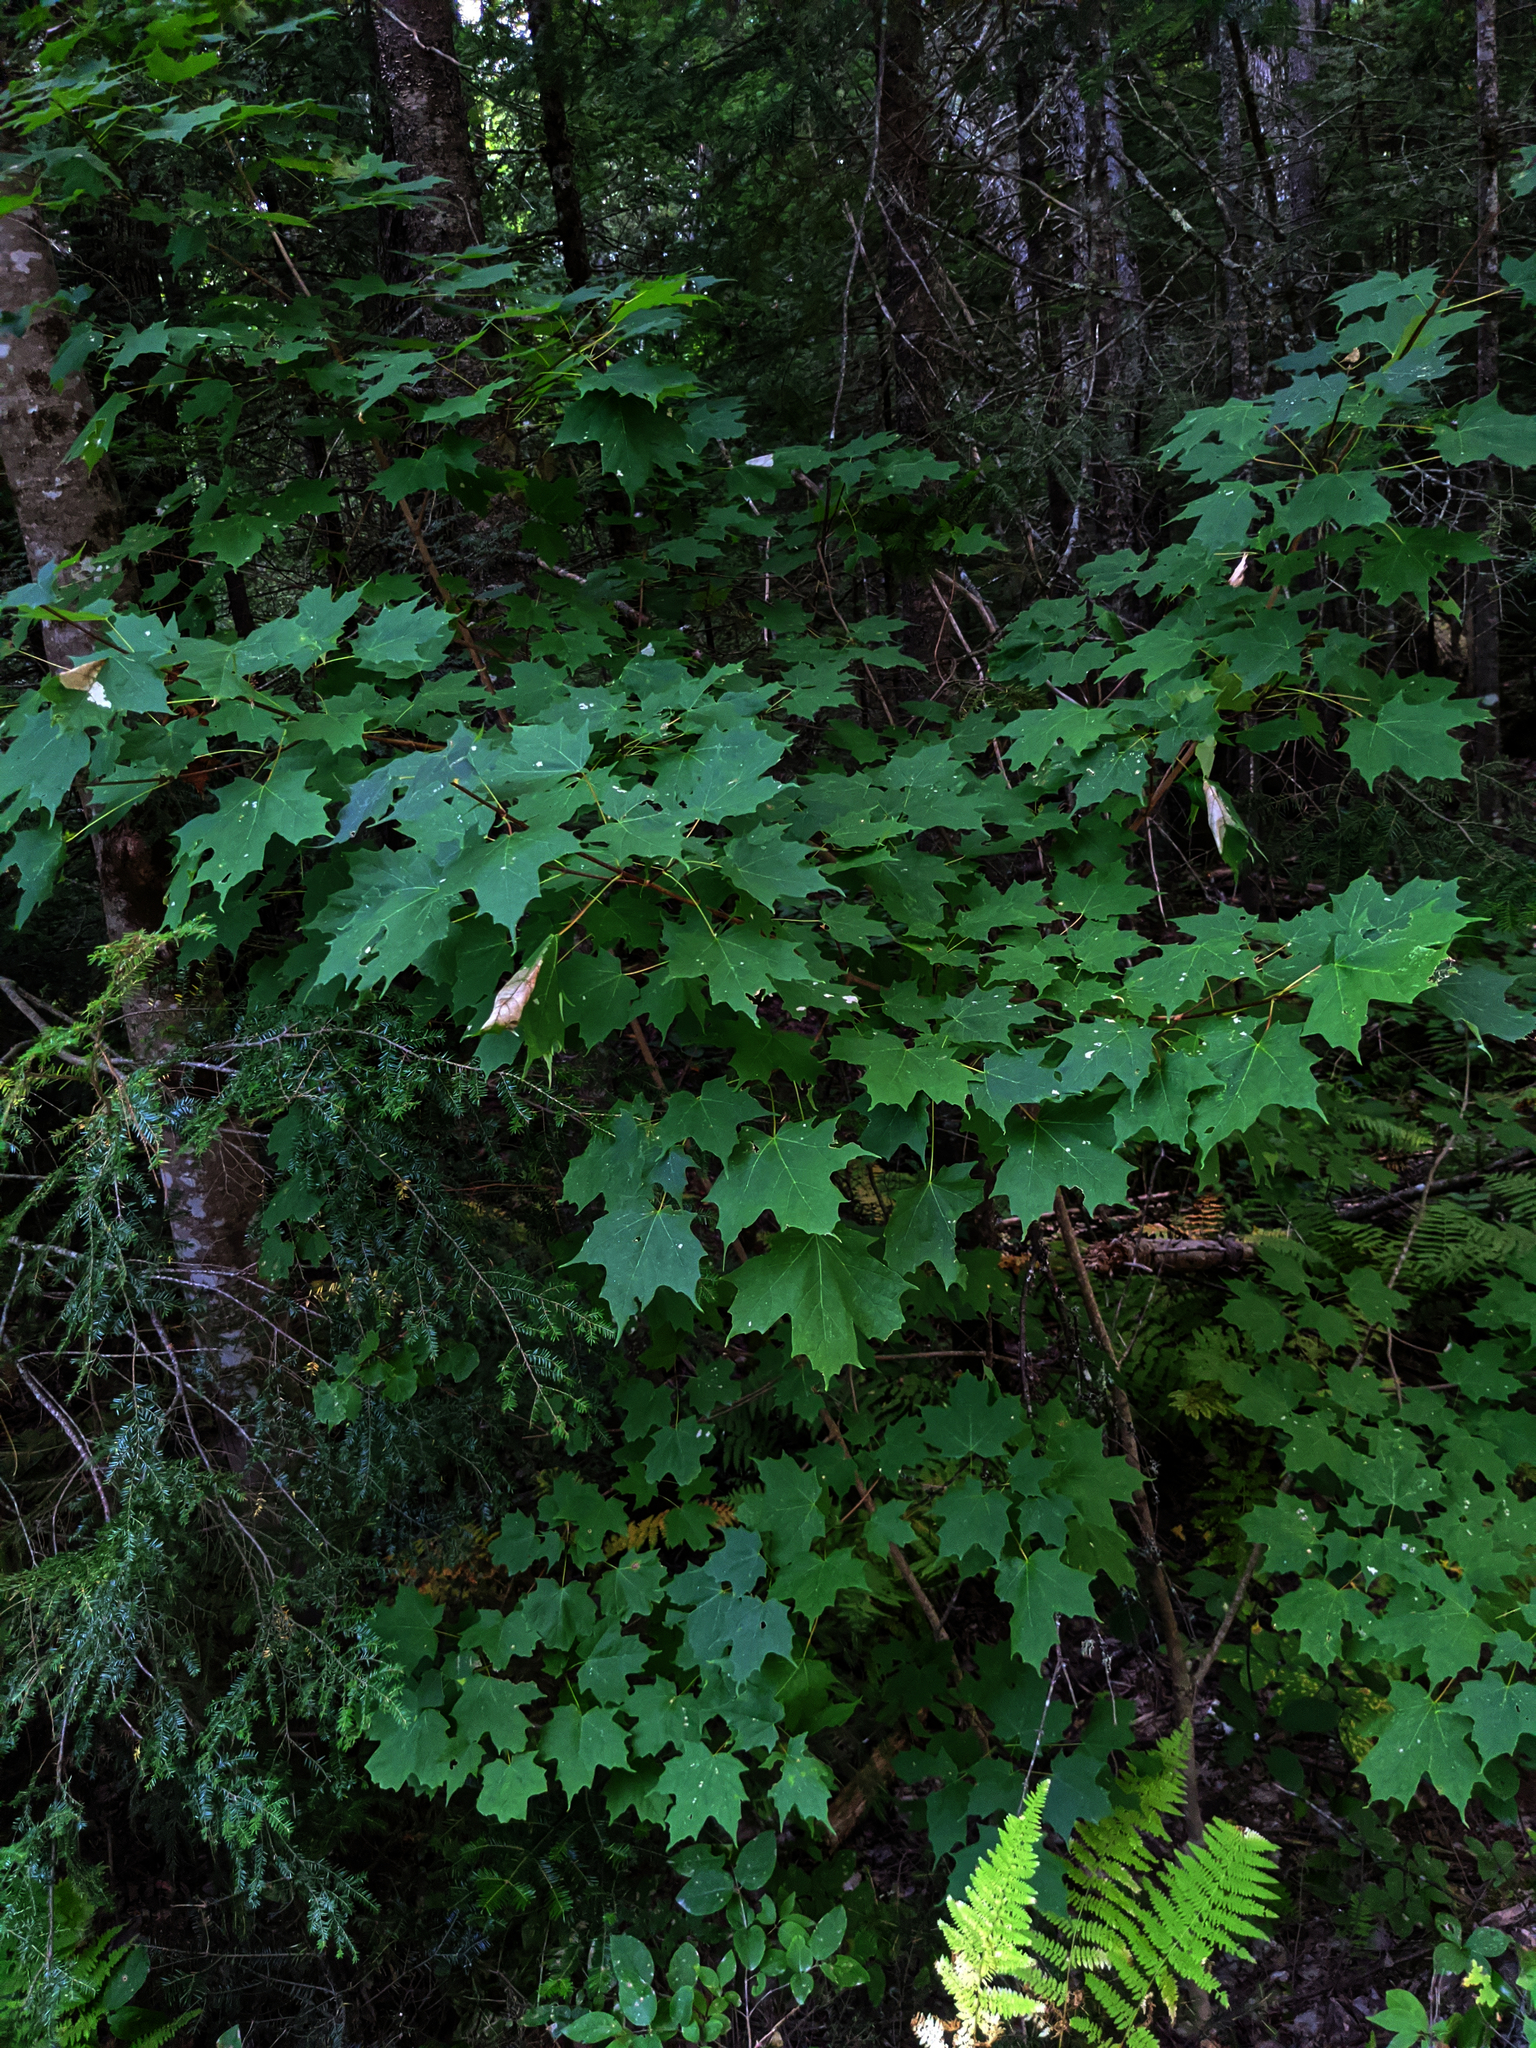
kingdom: Plantae
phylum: Tracheophyta
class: Magnoliopsida
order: Sapindales
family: Sapindaceae
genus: Acer
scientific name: Acer saccharum
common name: Sugar maple
